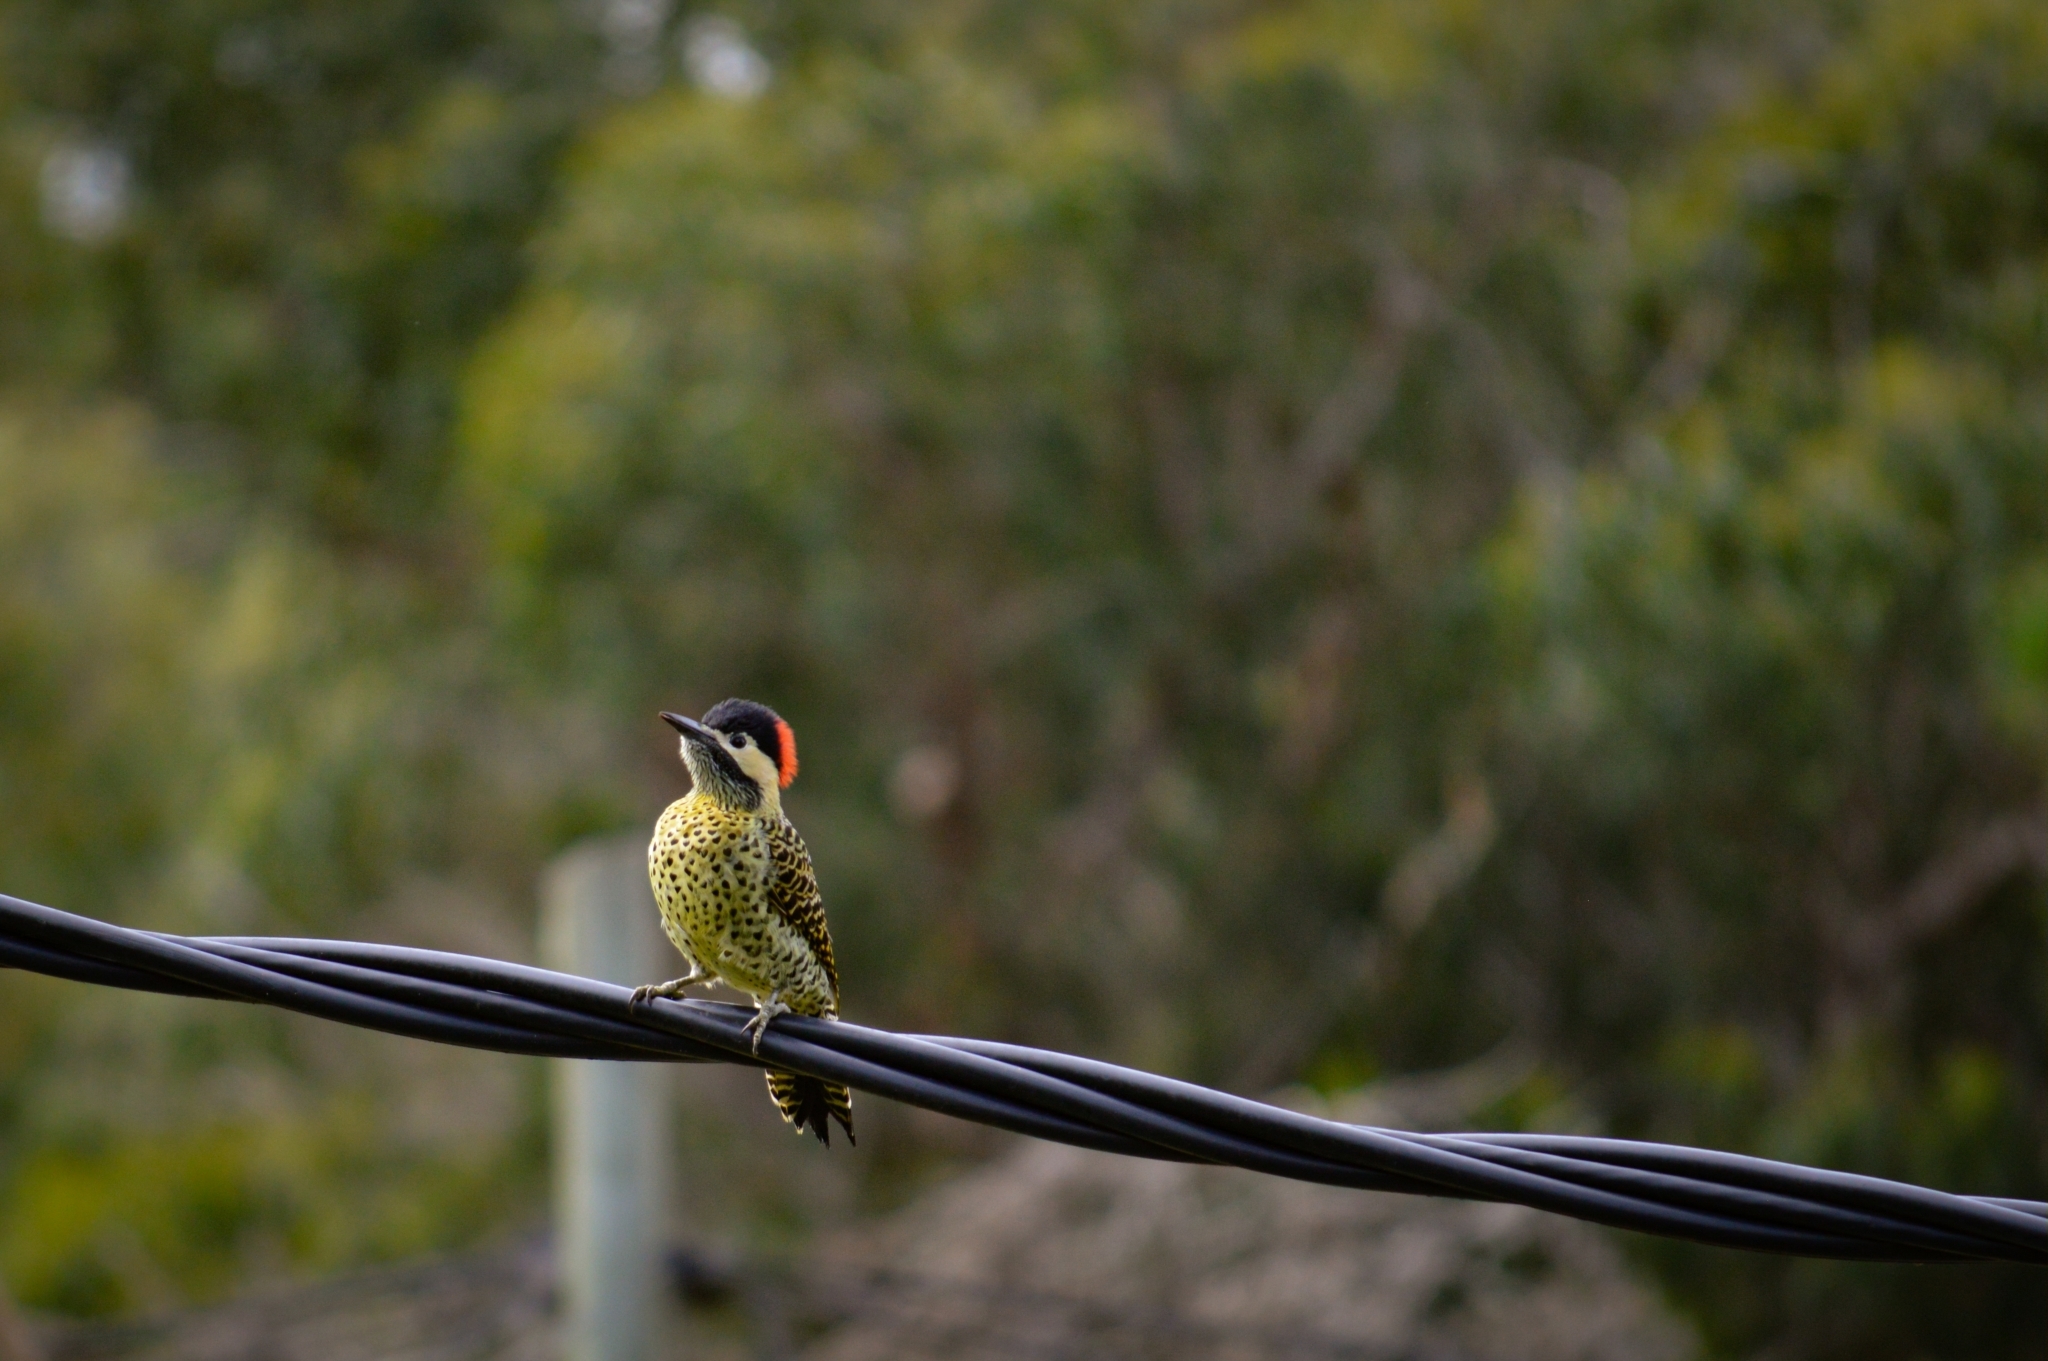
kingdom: Animalia
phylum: Chordata
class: Aves
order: Piciformes
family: Picidae
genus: Colaptes
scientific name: Colaptes melanochloros
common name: Green-barred woodpecker
